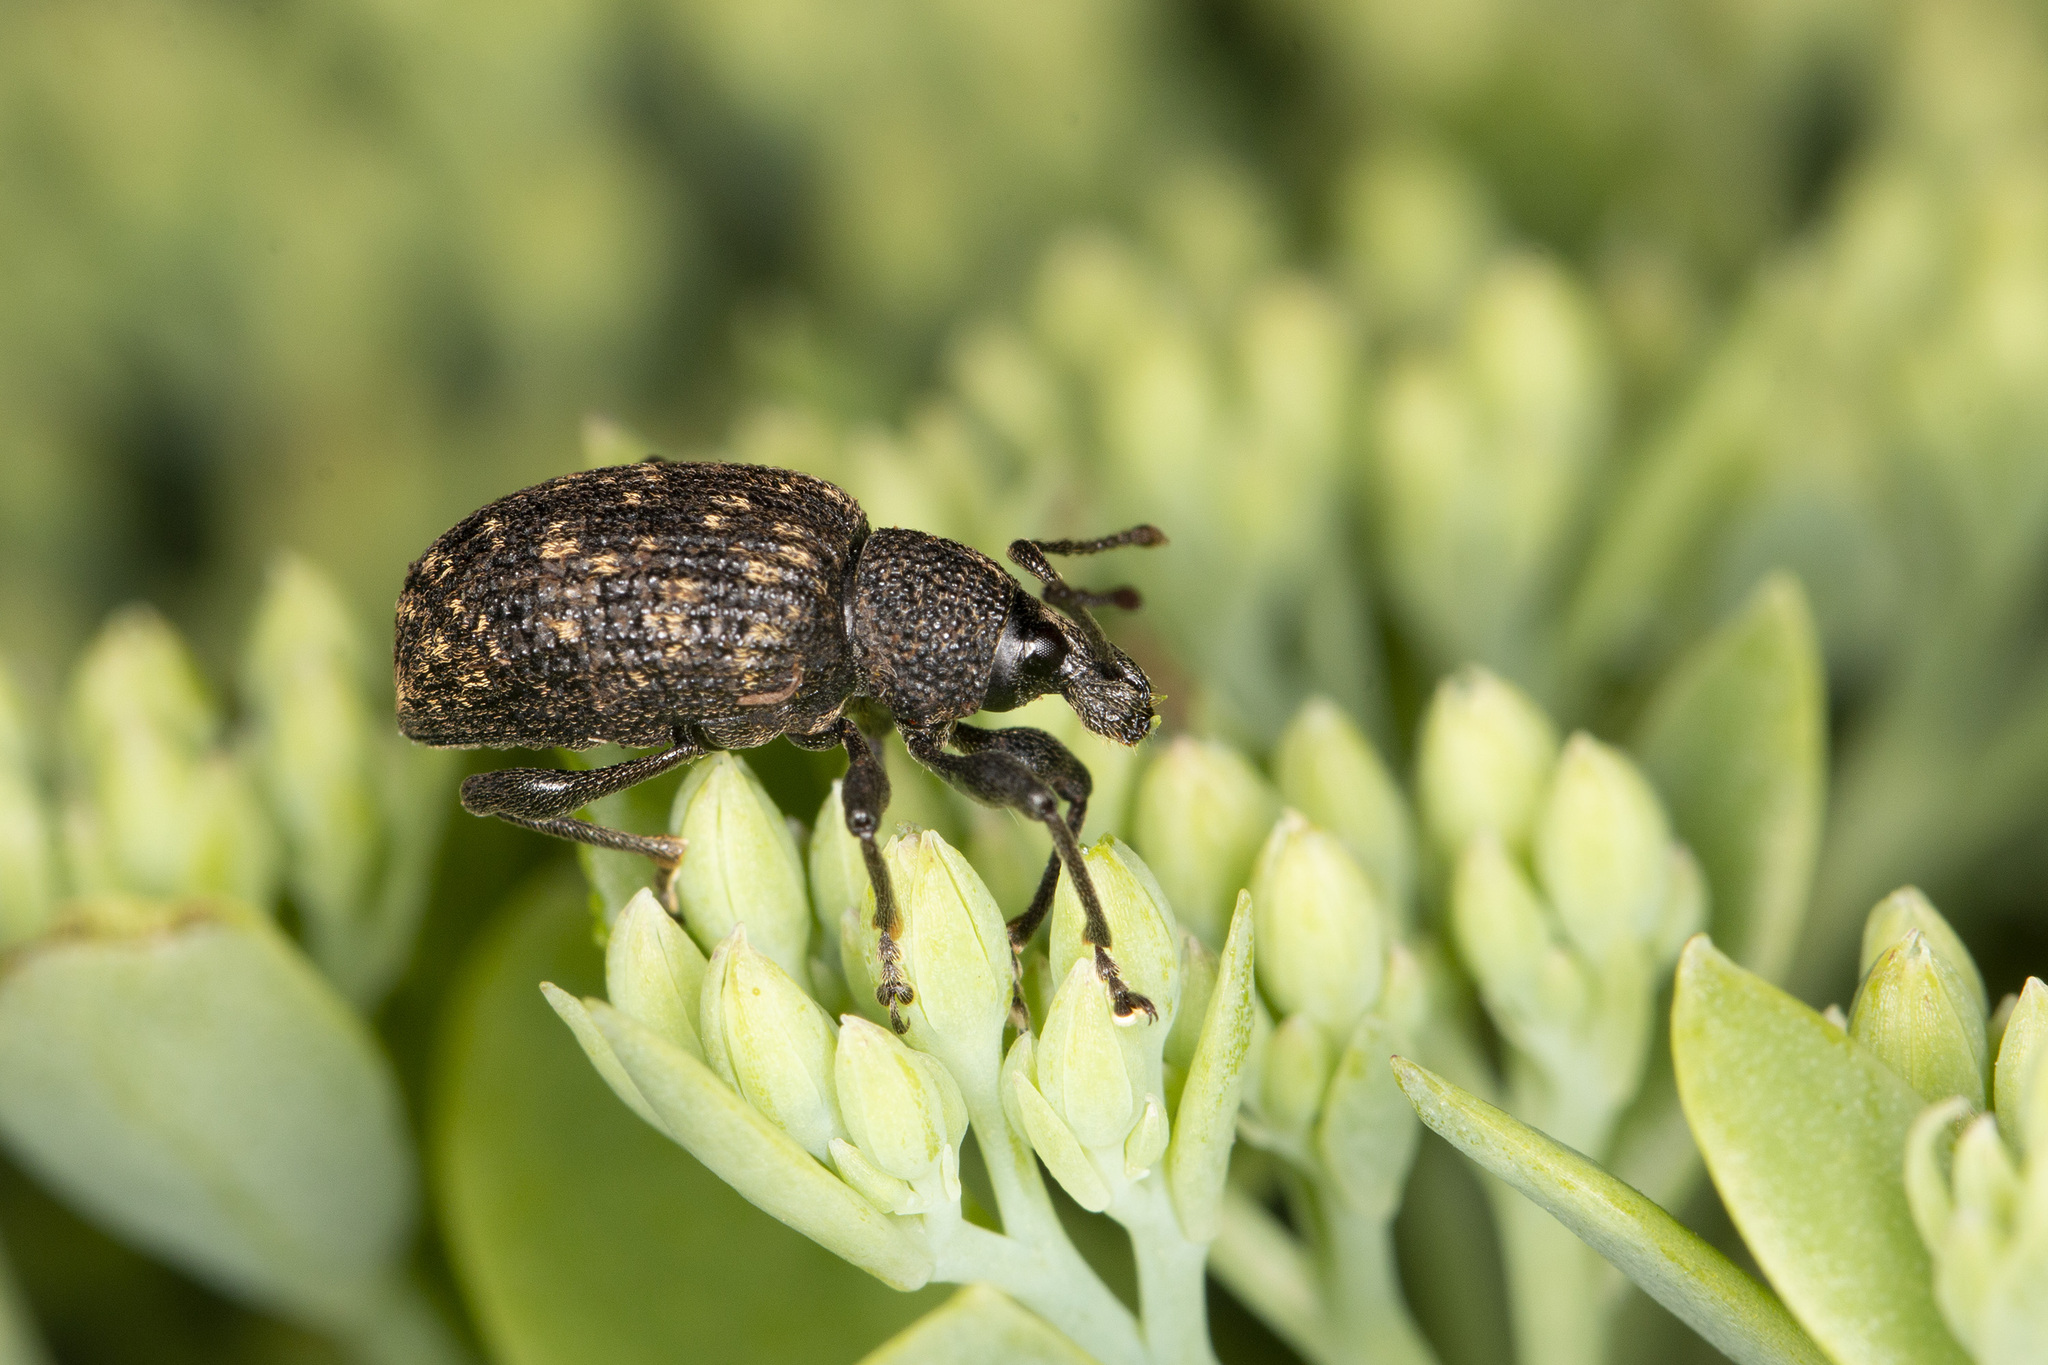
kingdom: Animalia
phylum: Arthropoda
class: Insecta
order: Coleoptera
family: Curculionidae
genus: Otiorhynchus
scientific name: Otiorhynchus sulcatus
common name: Black vine weevil
